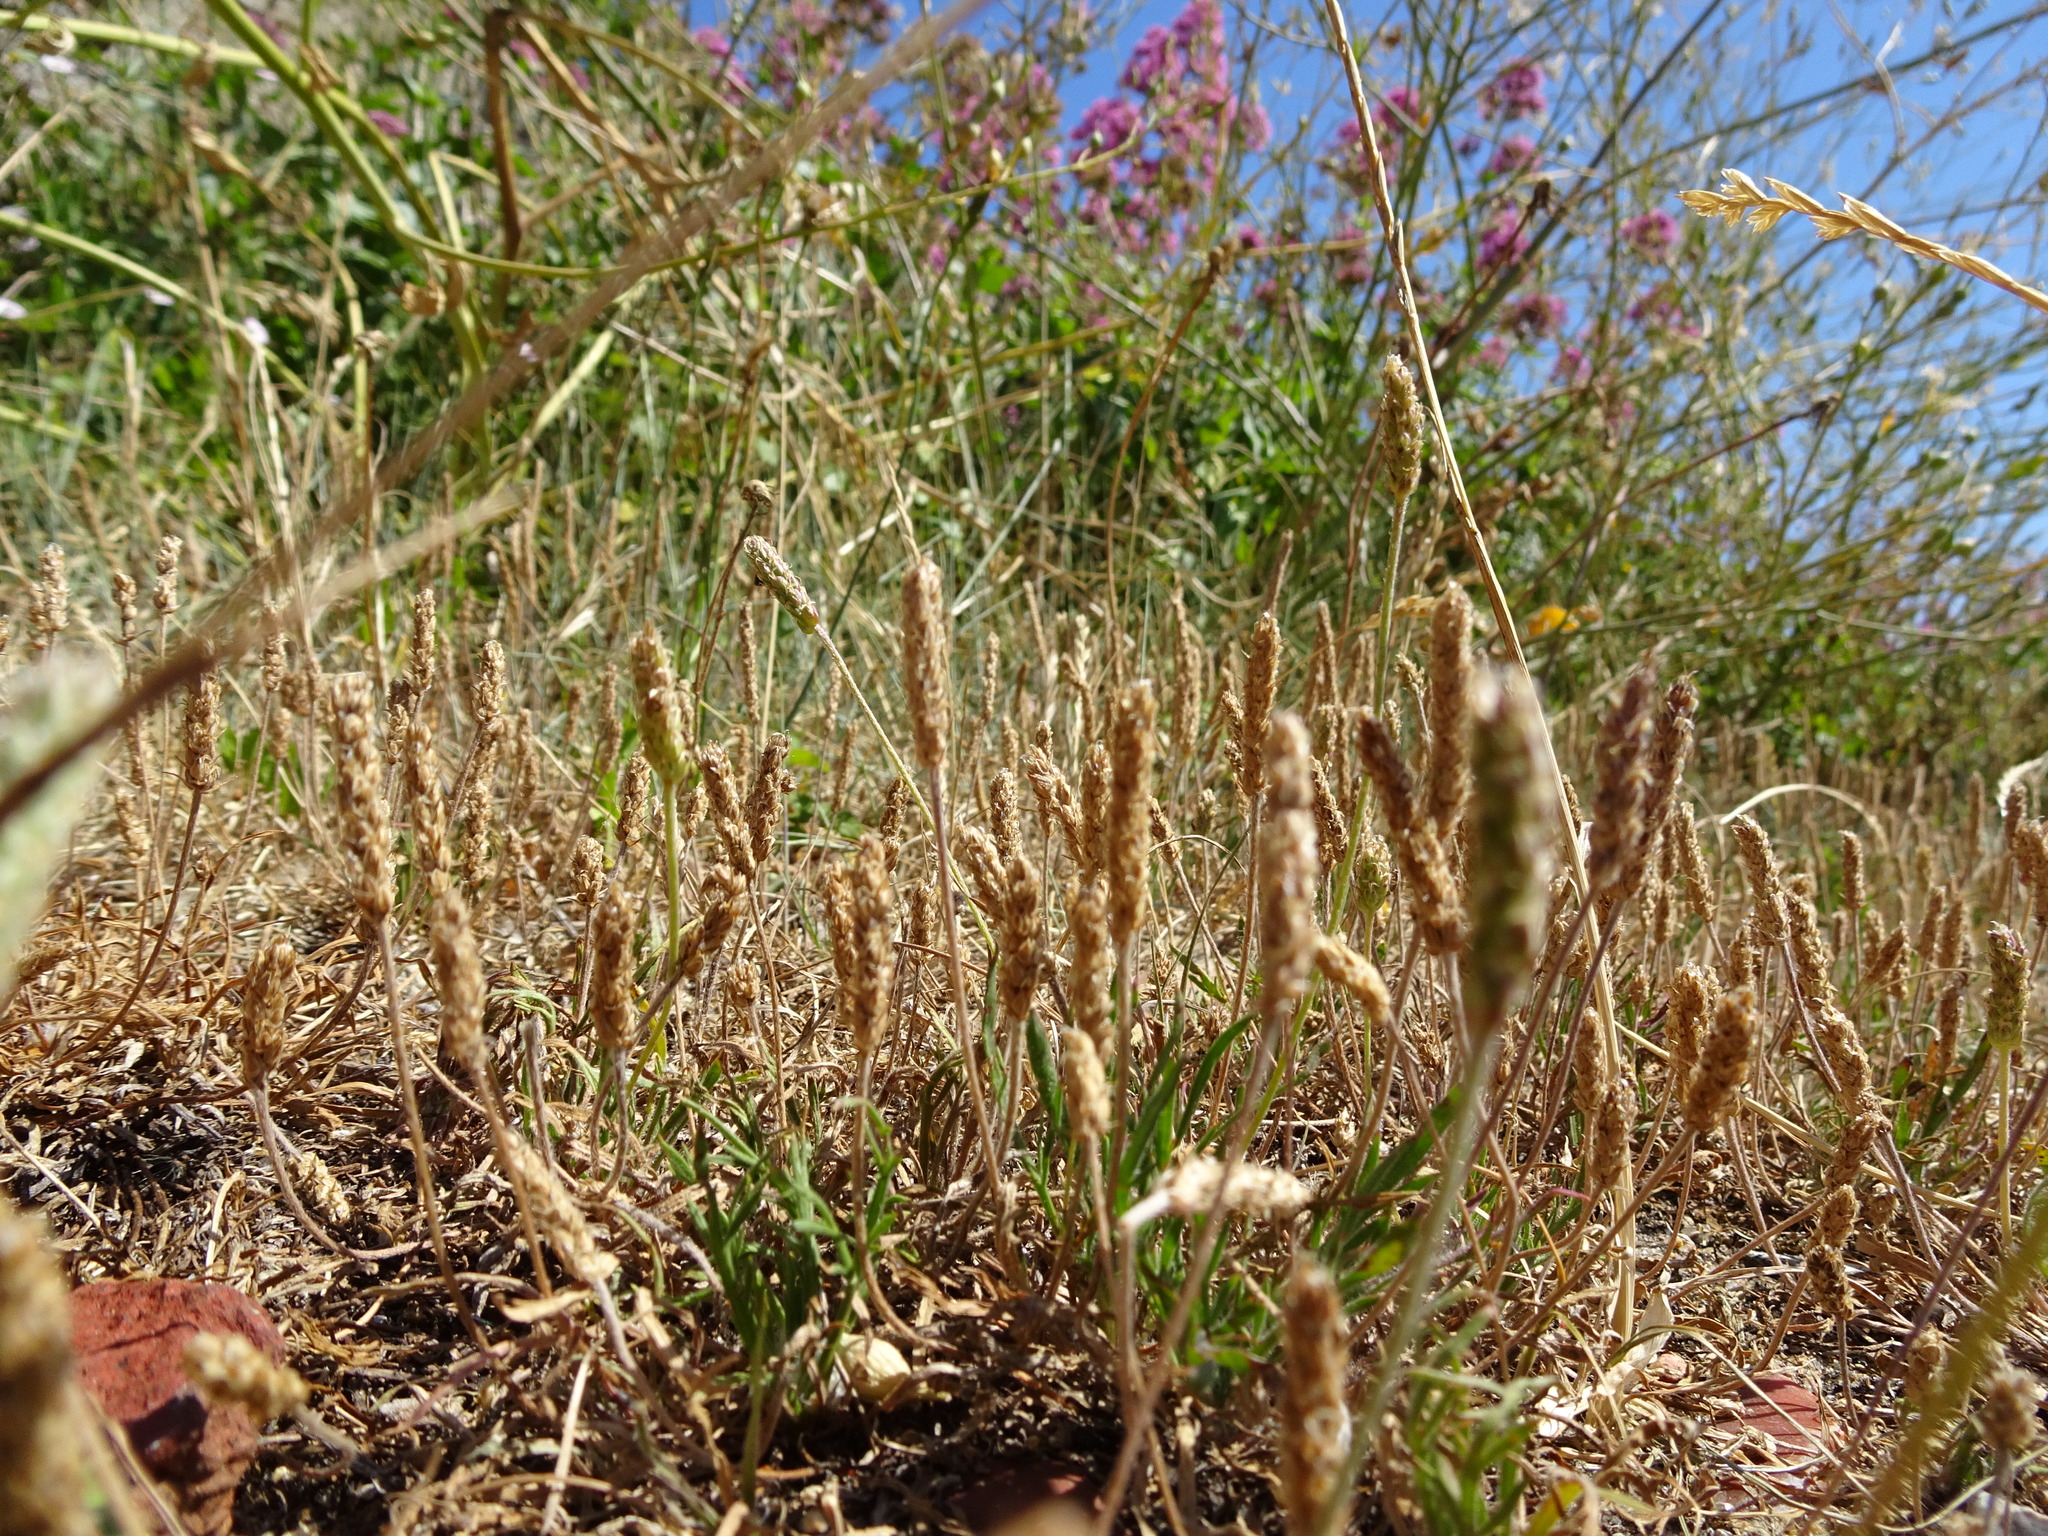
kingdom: Plantae
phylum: Tracheophyta
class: Magnoliopsida
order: Lamiales
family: Plantaginaceae
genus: Plantago
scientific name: Plantago coronopus
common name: Buck's-horn plantain
